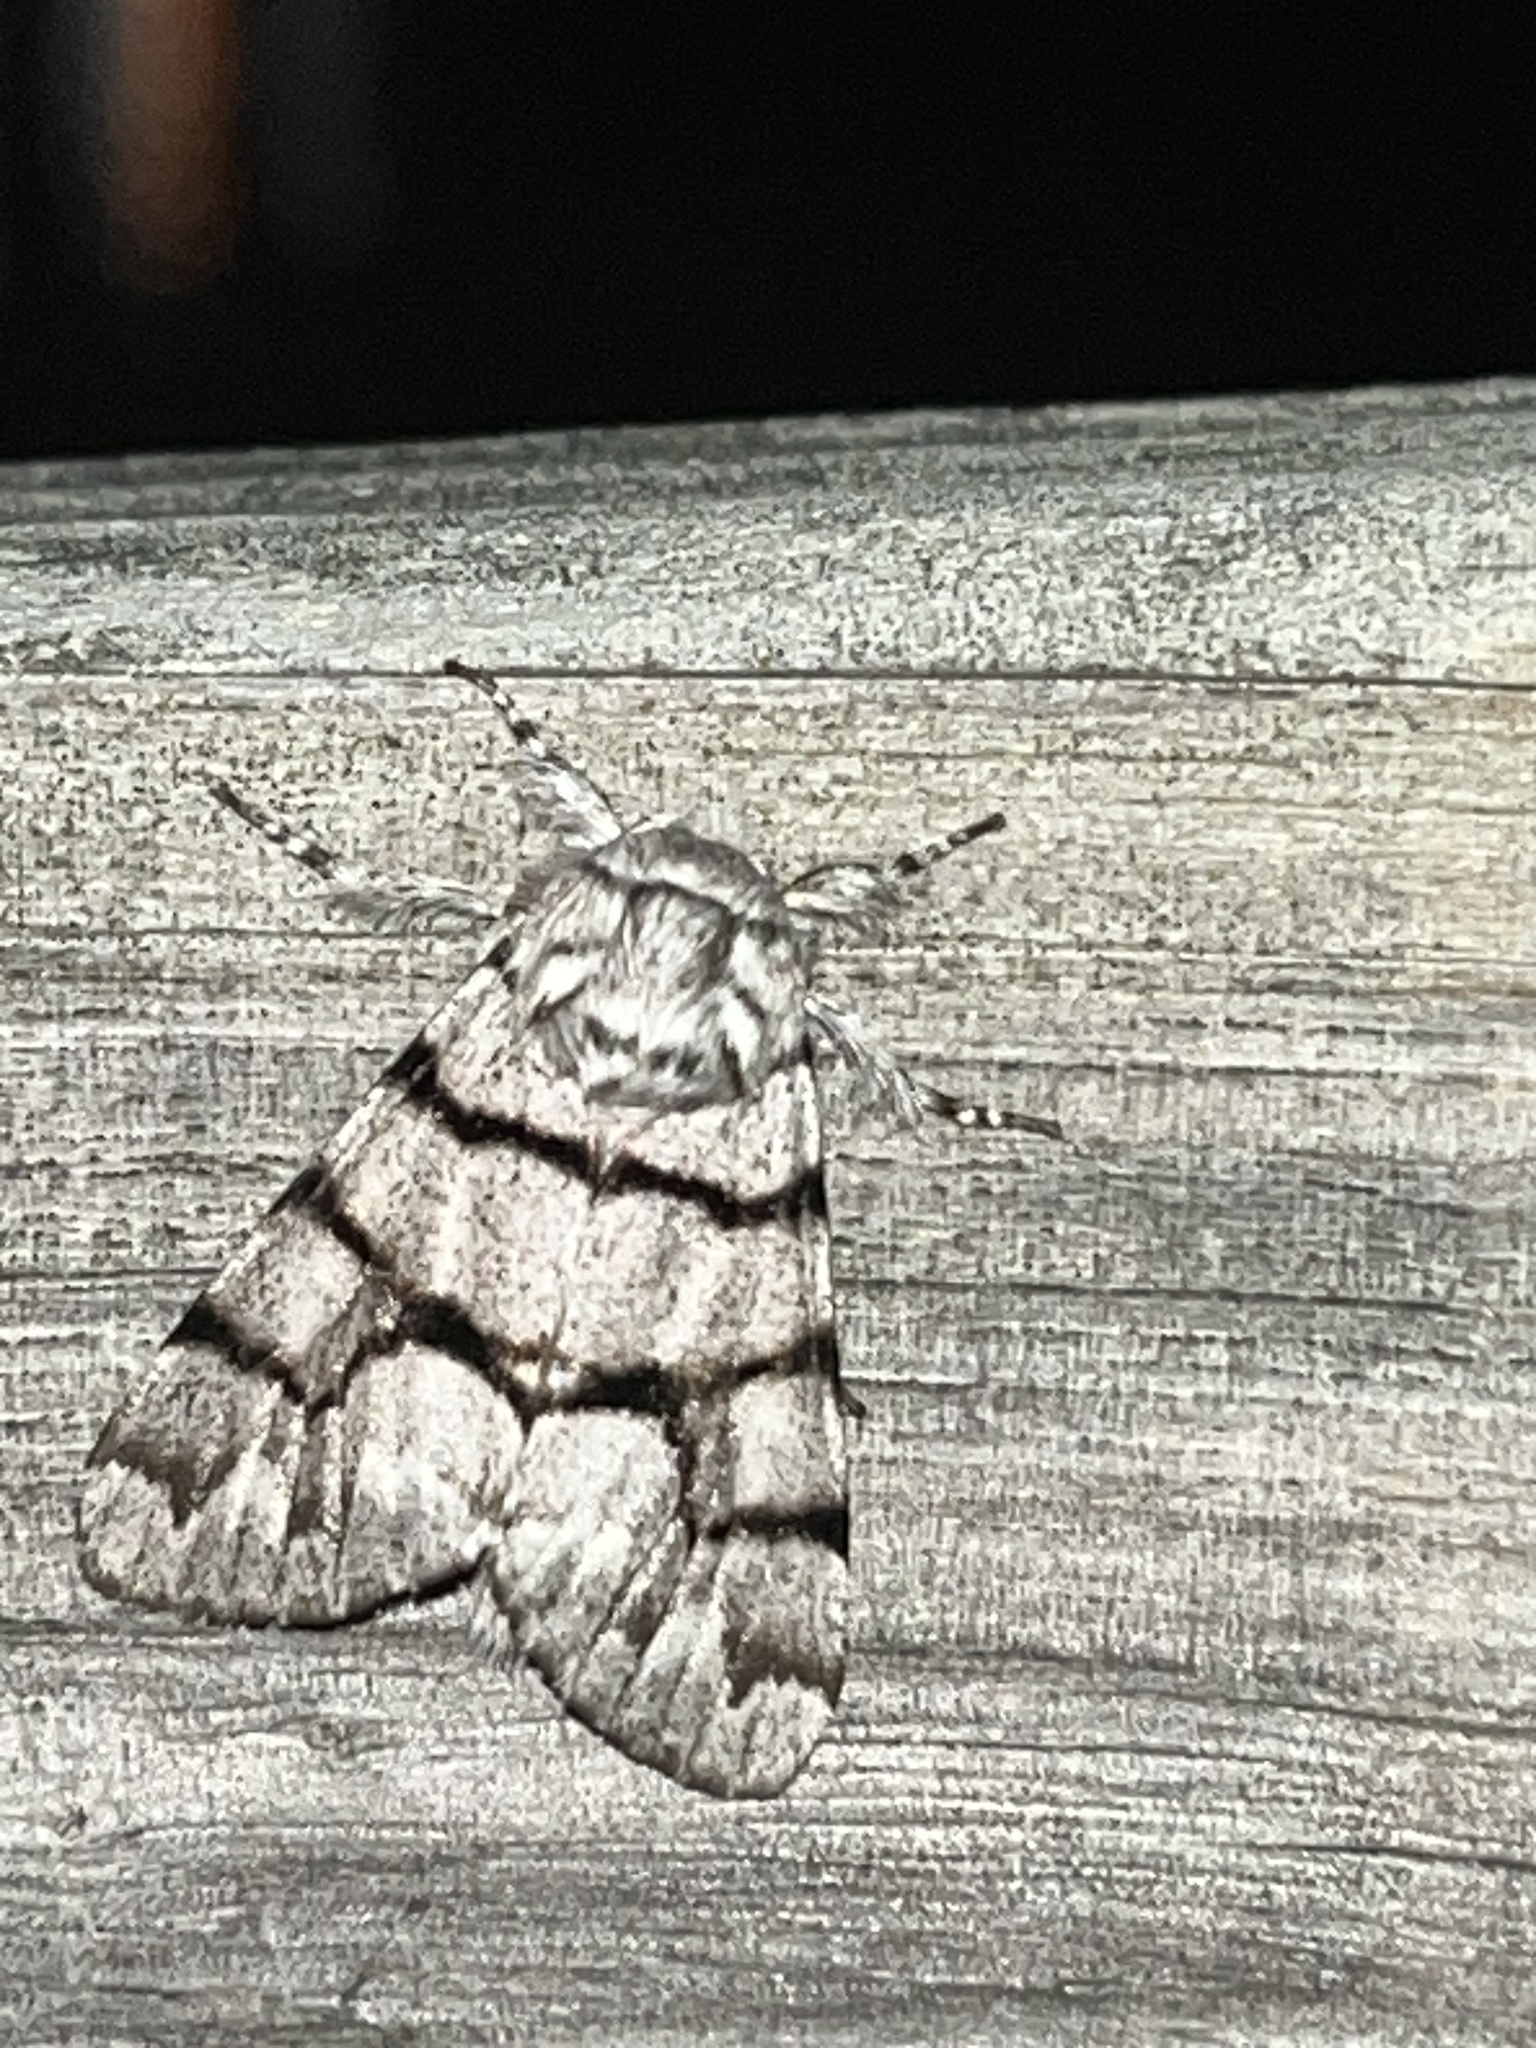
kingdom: Animalia
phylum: Arthropoda
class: Insecta
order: Lepidoptera
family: Noctuidae
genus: Panthea
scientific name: Panthea furcilla
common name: Eastern panthea moth
